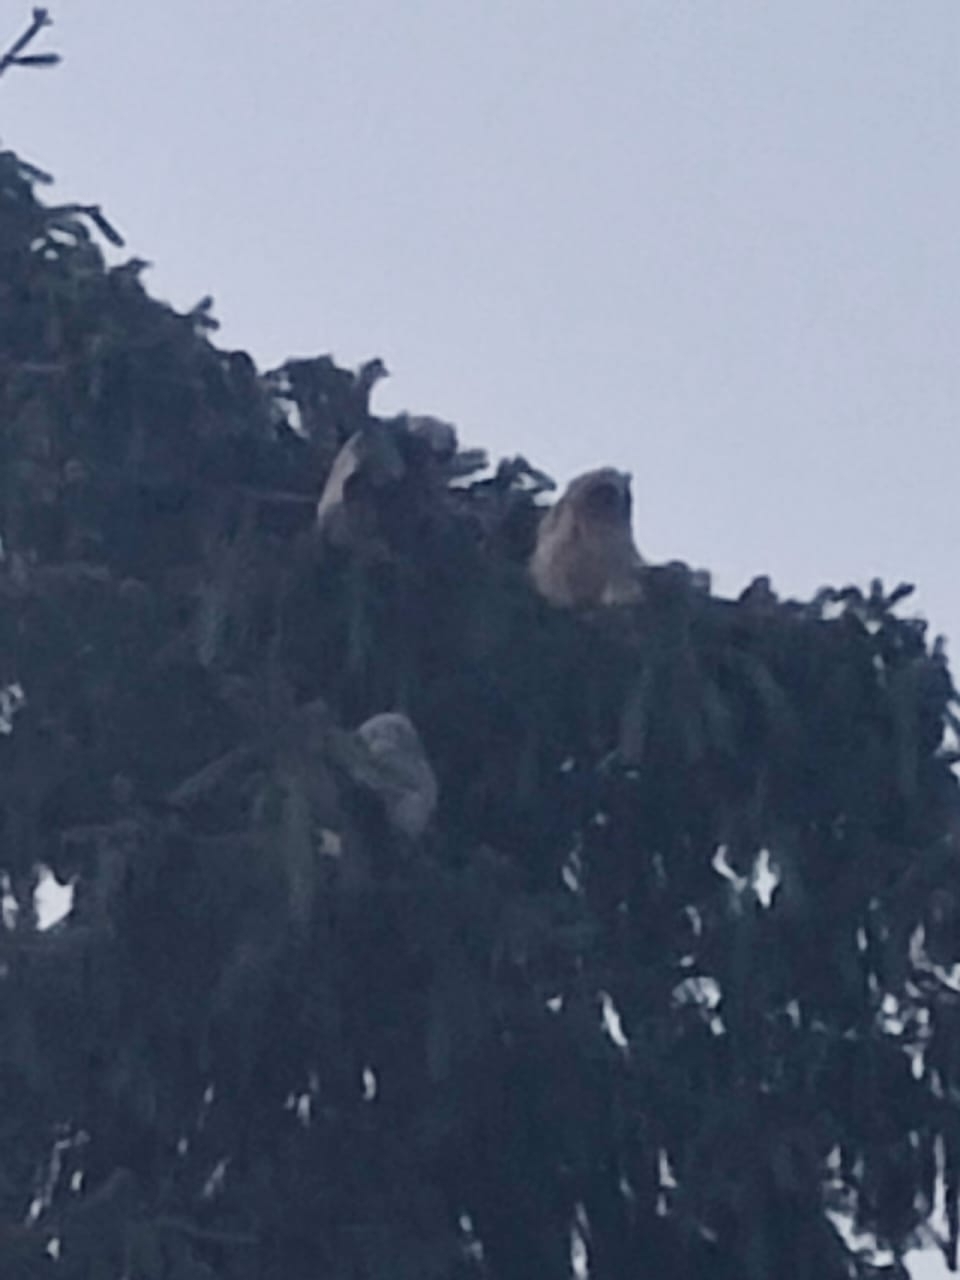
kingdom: Animalia
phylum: Chordata
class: Aves
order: Strigiformes
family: Strigidae
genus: Asio
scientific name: Asio otus
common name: Long-eared owl
